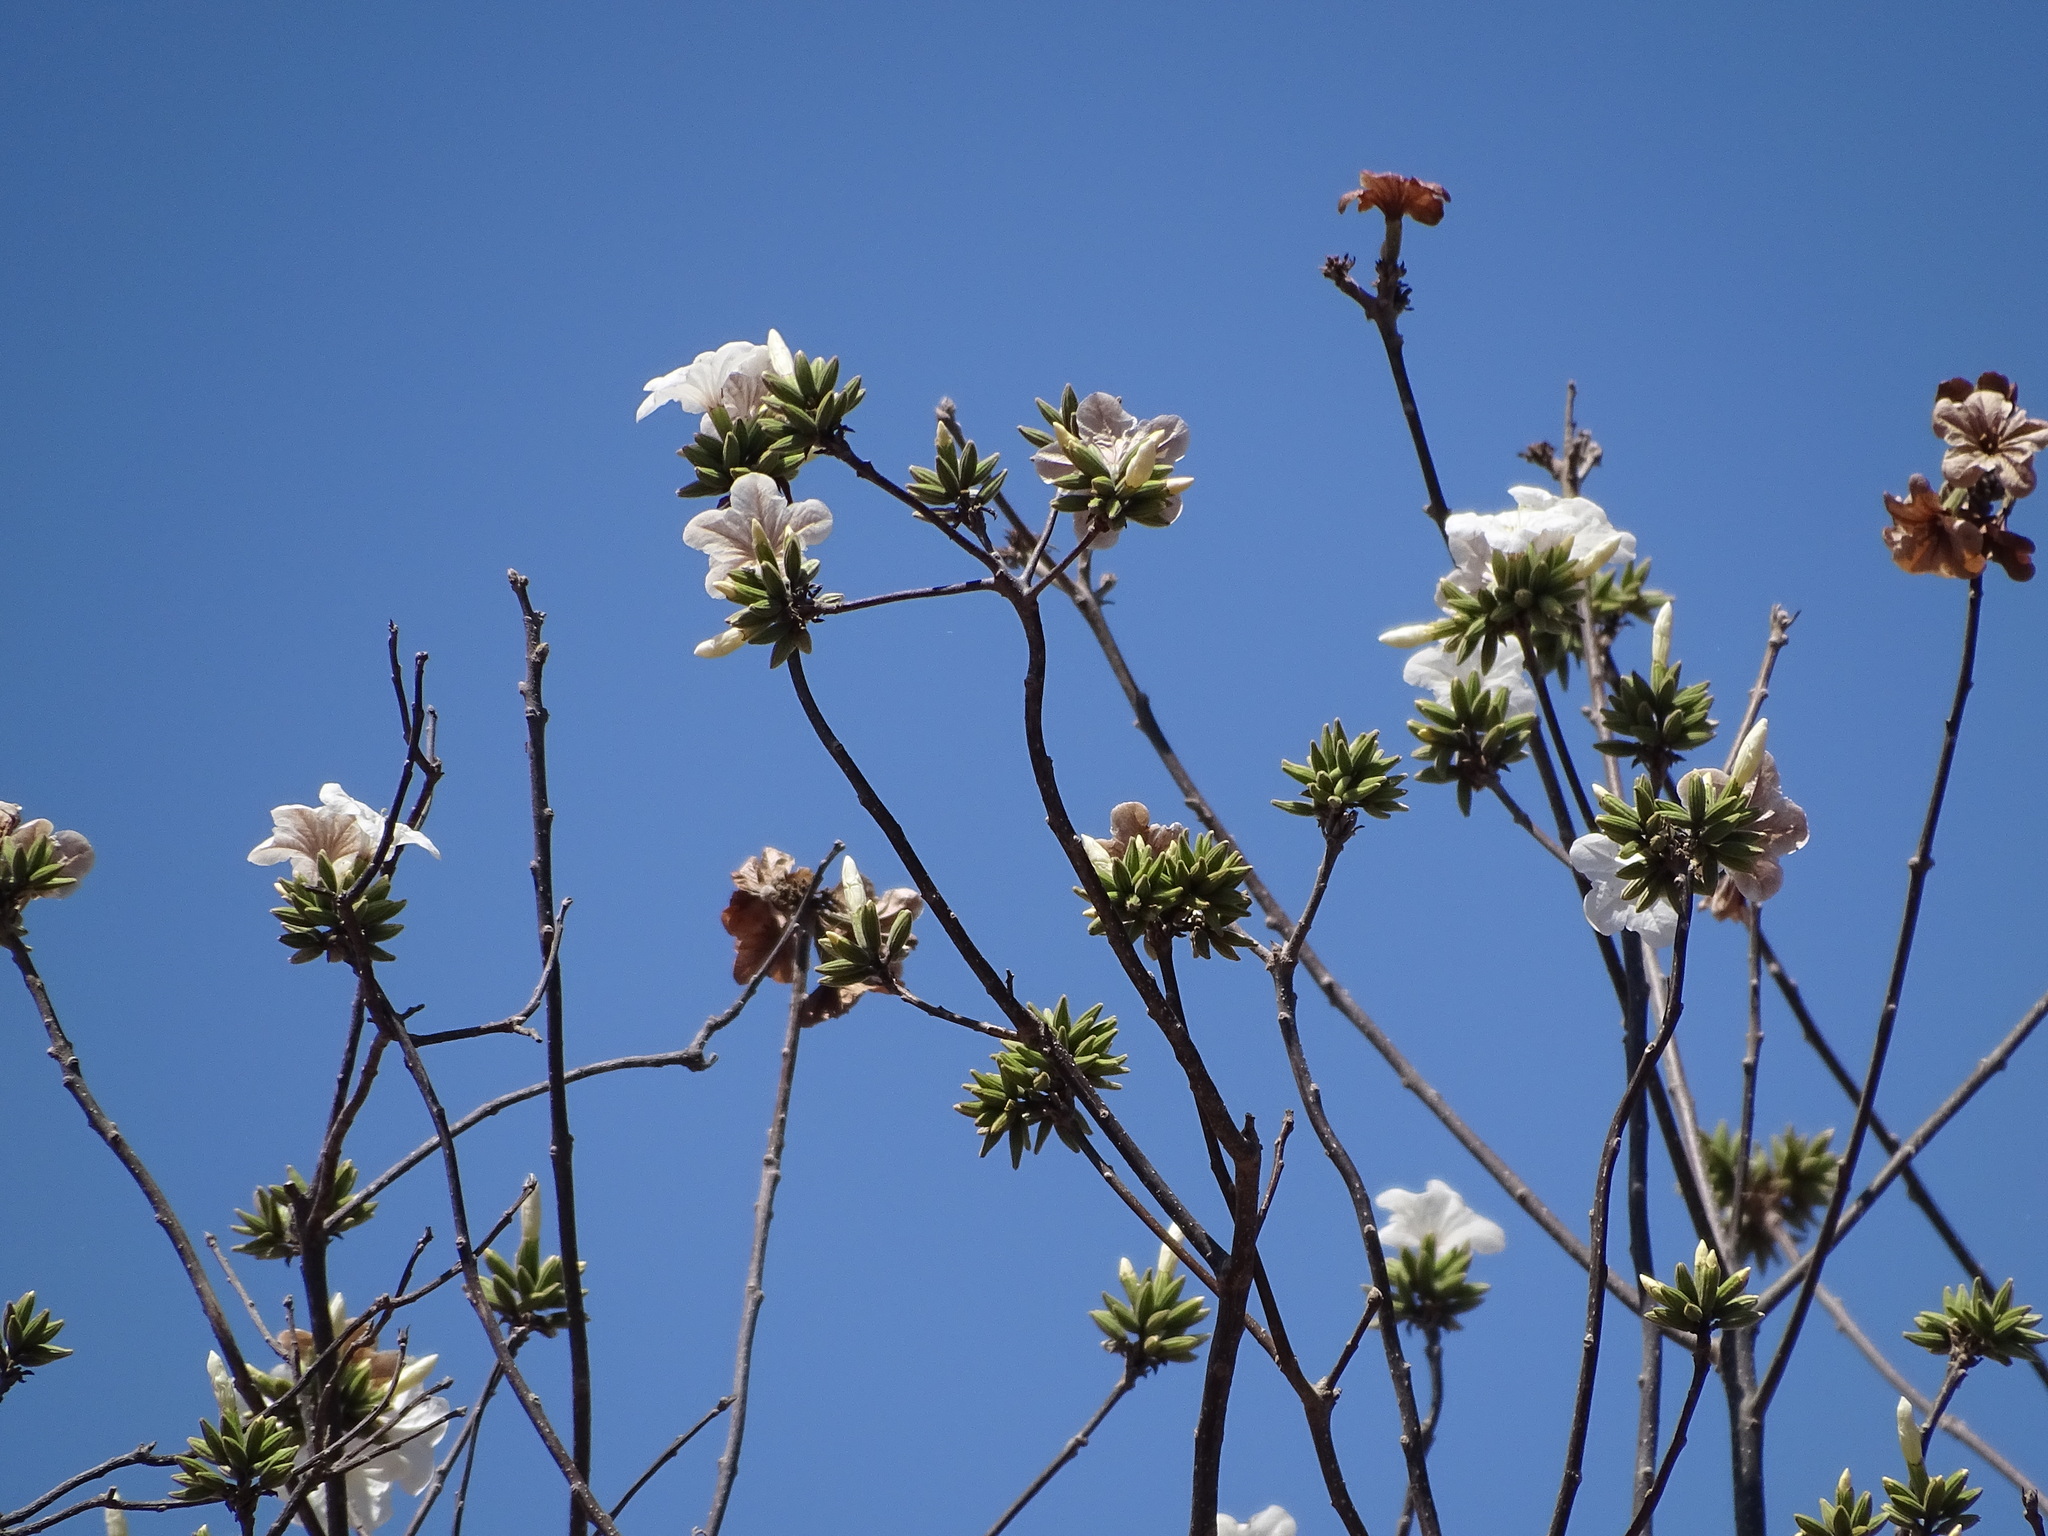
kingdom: Plantae
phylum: Tracheophyta
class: Magnoliopsida
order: Boraginales
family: Cordiaceae
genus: Cordia
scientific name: Cordia sonorae
